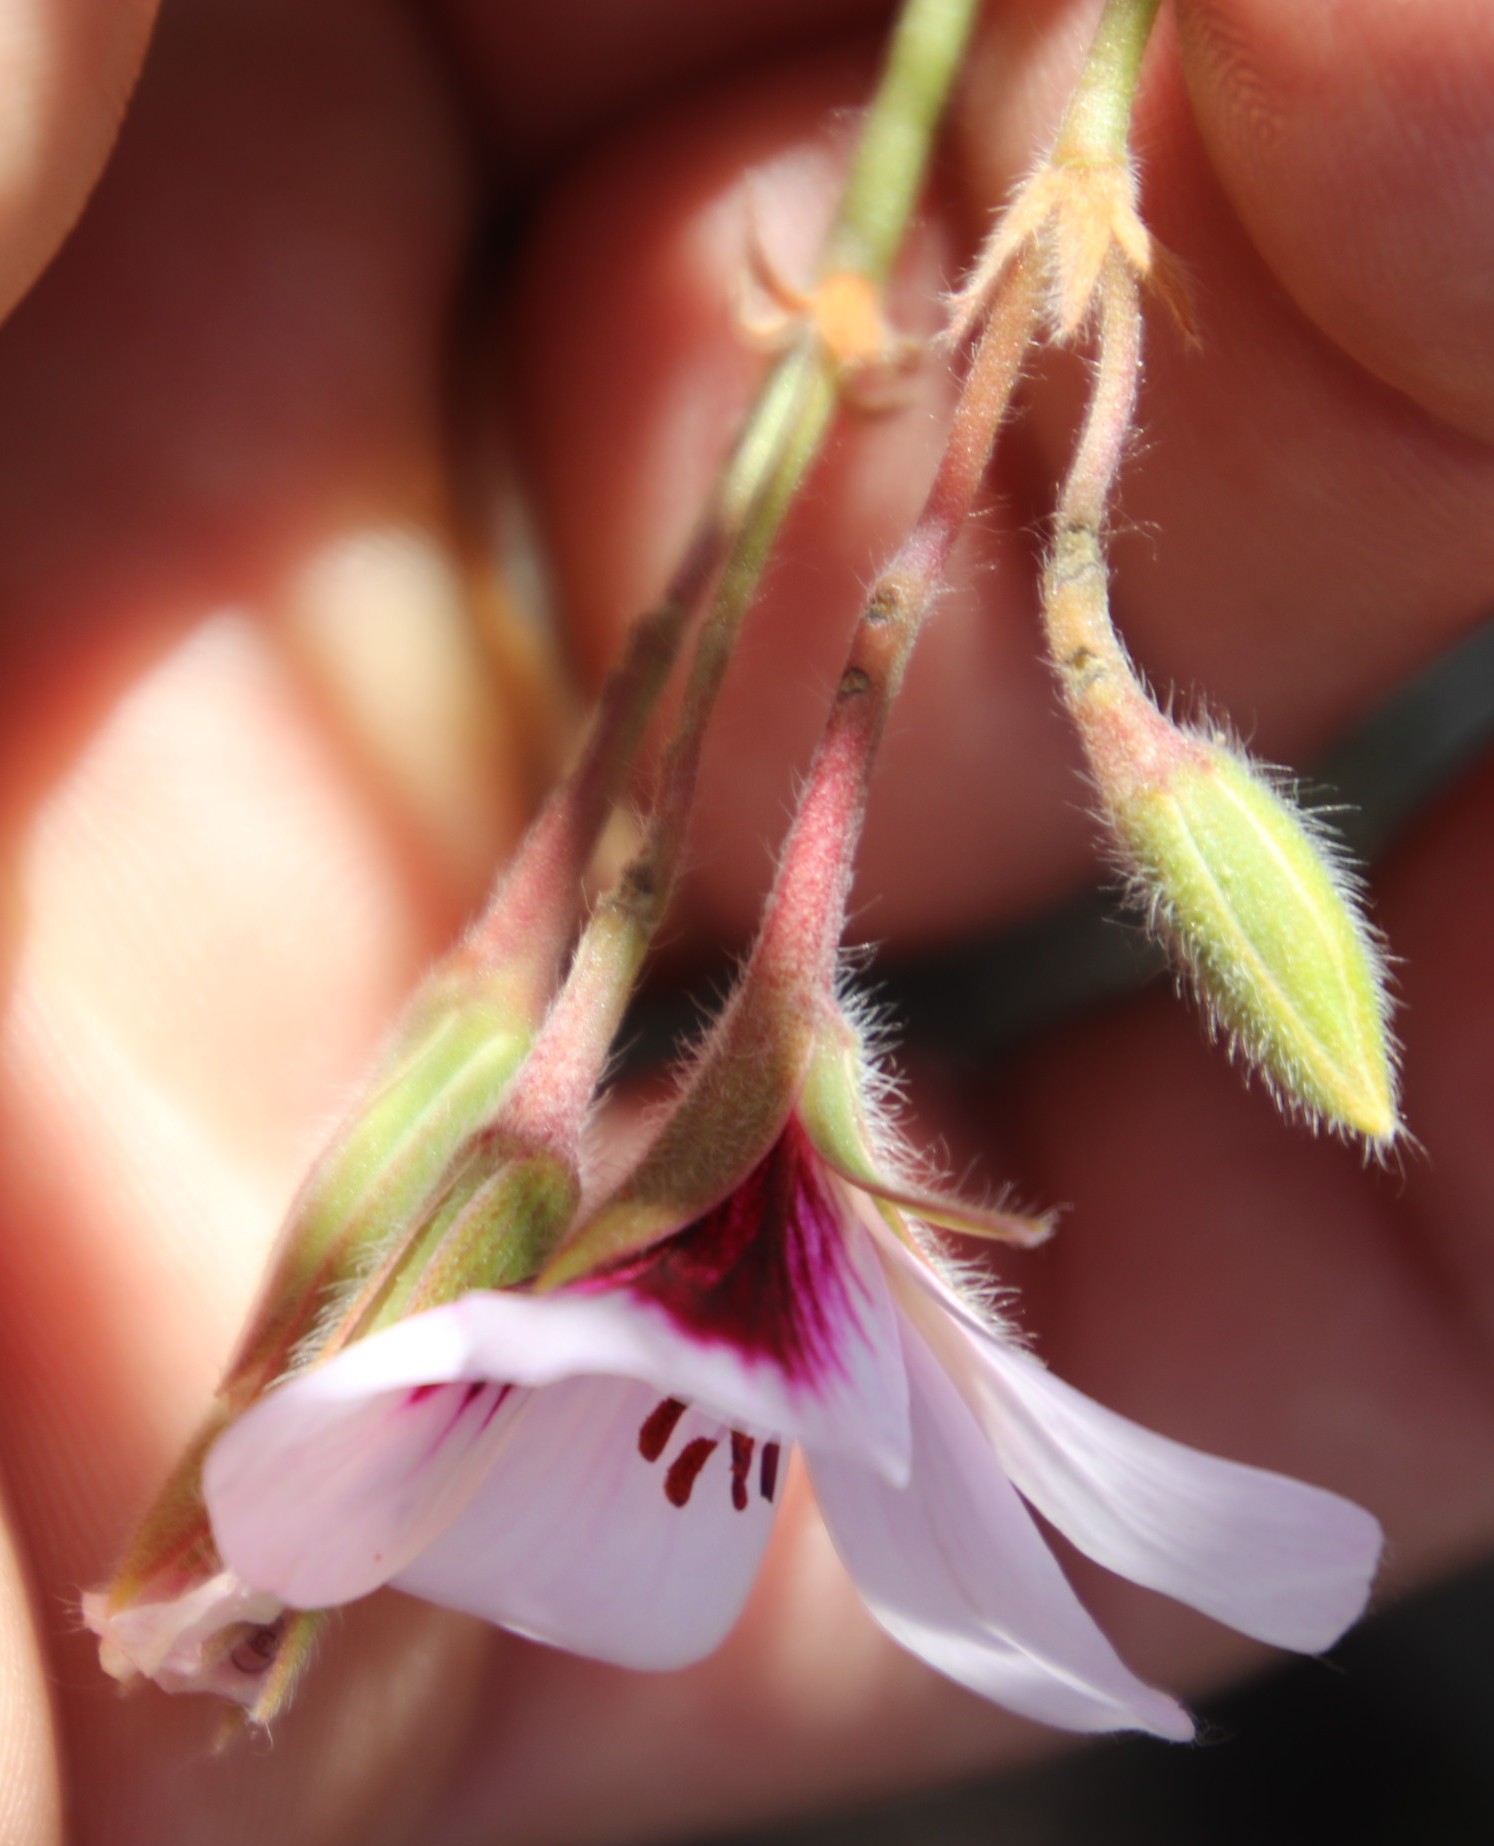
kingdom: Plantae
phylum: Tracheophyta
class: Magnoliopsida
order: Geraniales
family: Geraniaceae
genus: Pelargonium
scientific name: Pelargonium betulinum
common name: Birch-leaf pelargonium
